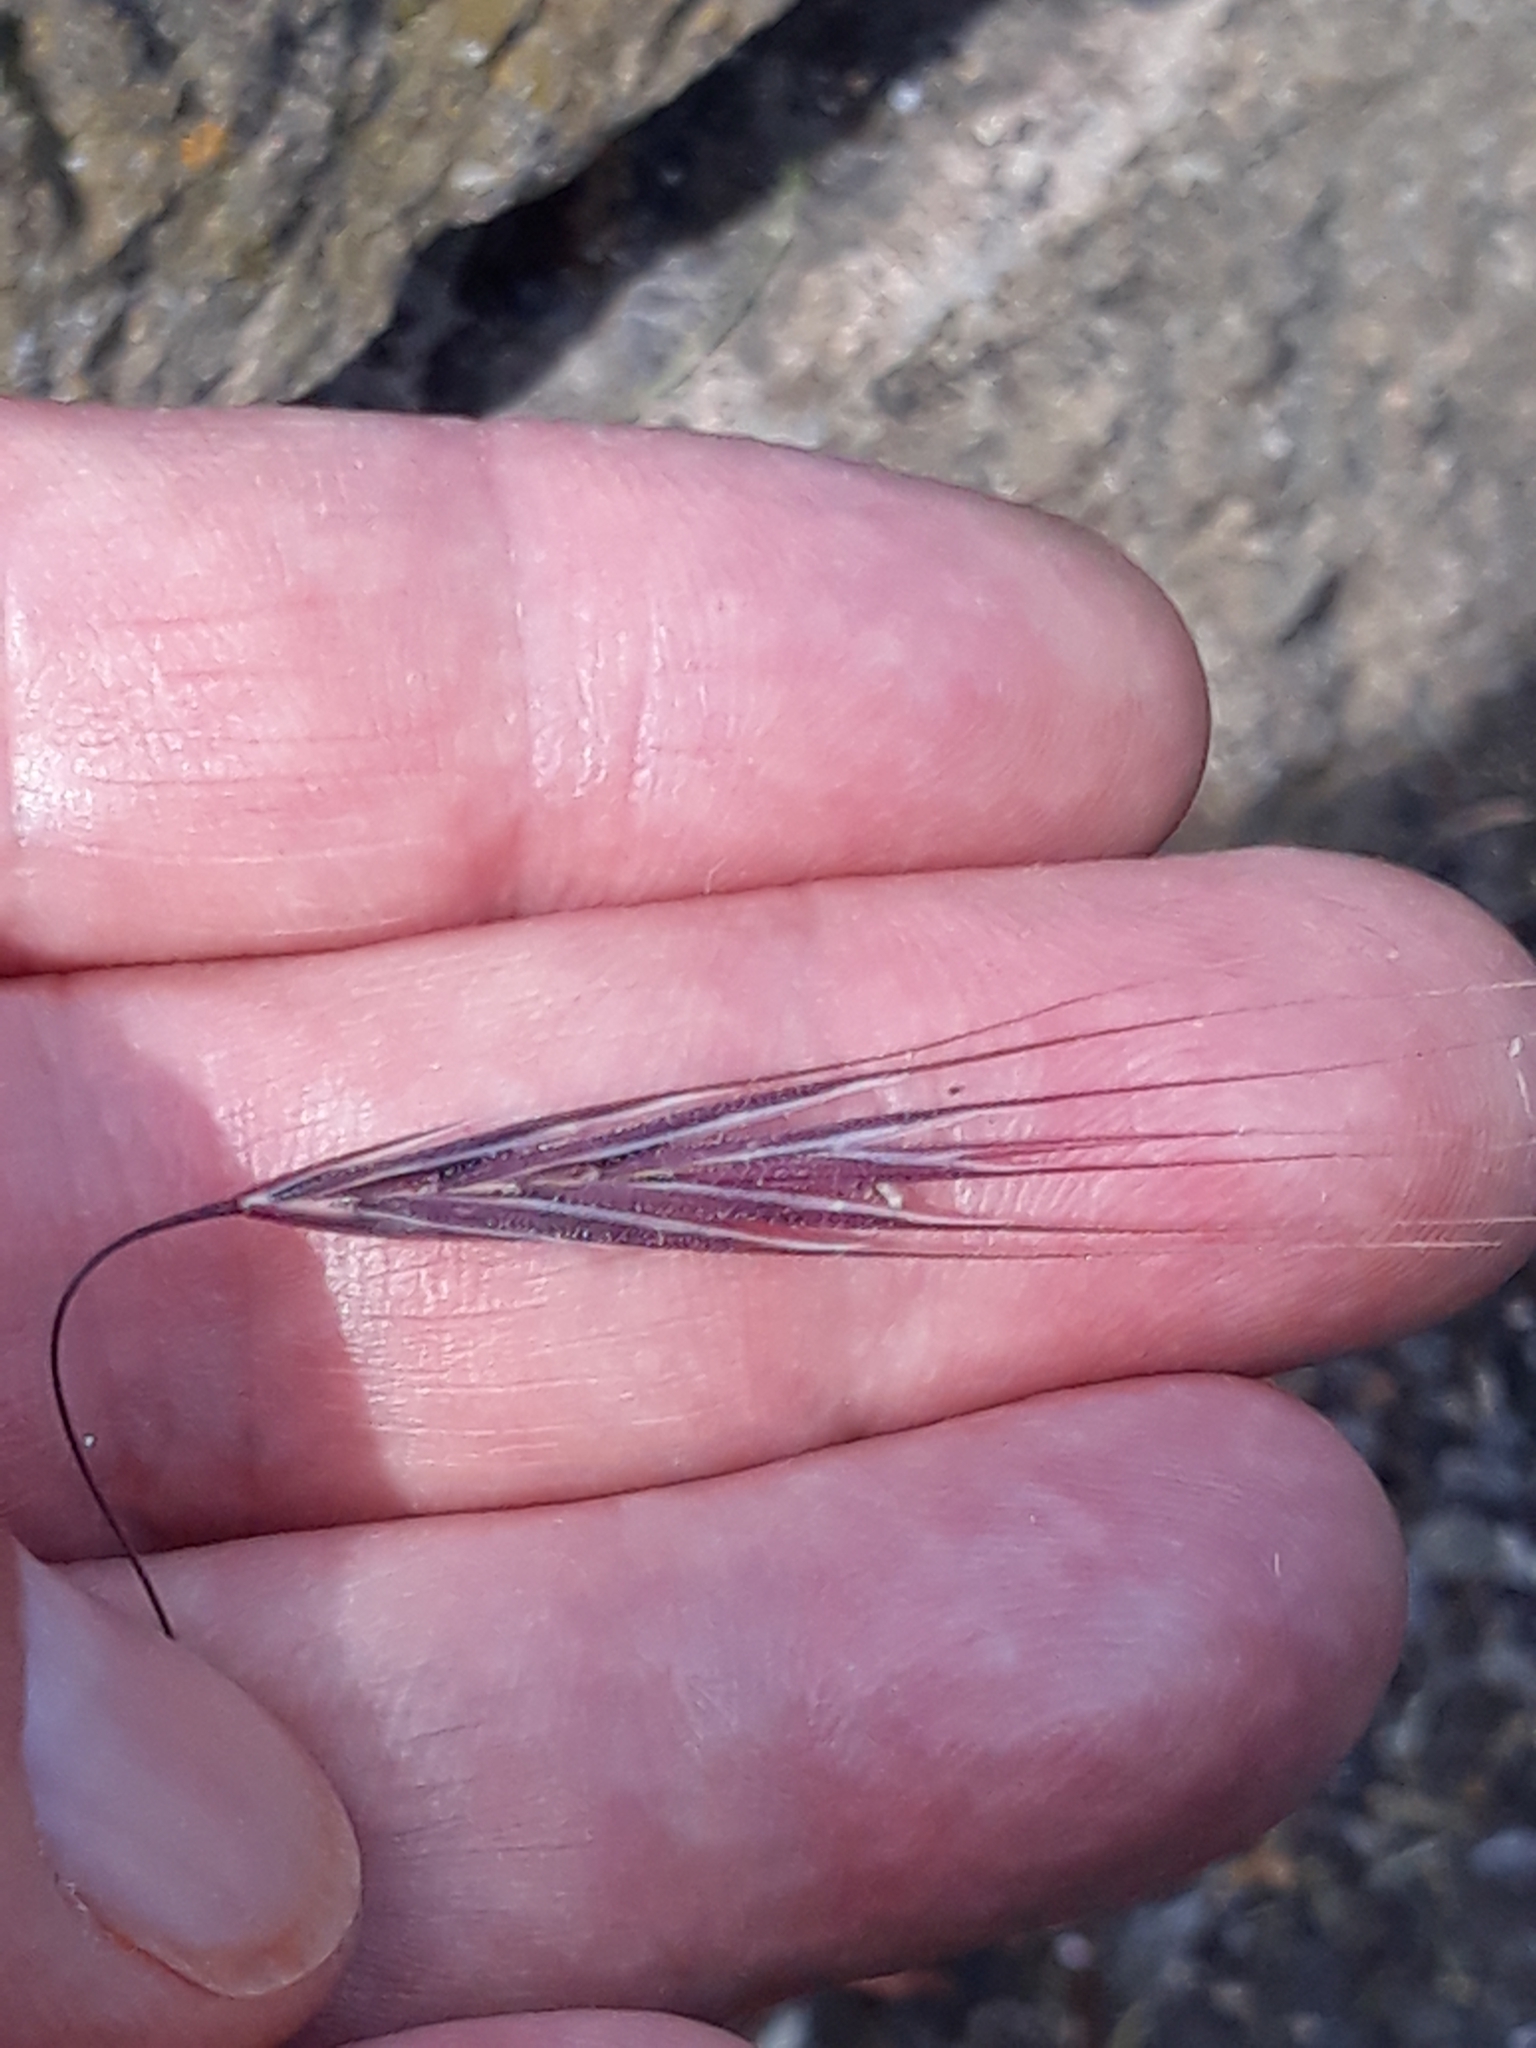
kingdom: Plantae
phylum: Tracheophyta
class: Liliopsida
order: Poales
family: Poaceae
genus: Bromus
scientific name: Bromus sterilis
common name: Poverty brome
